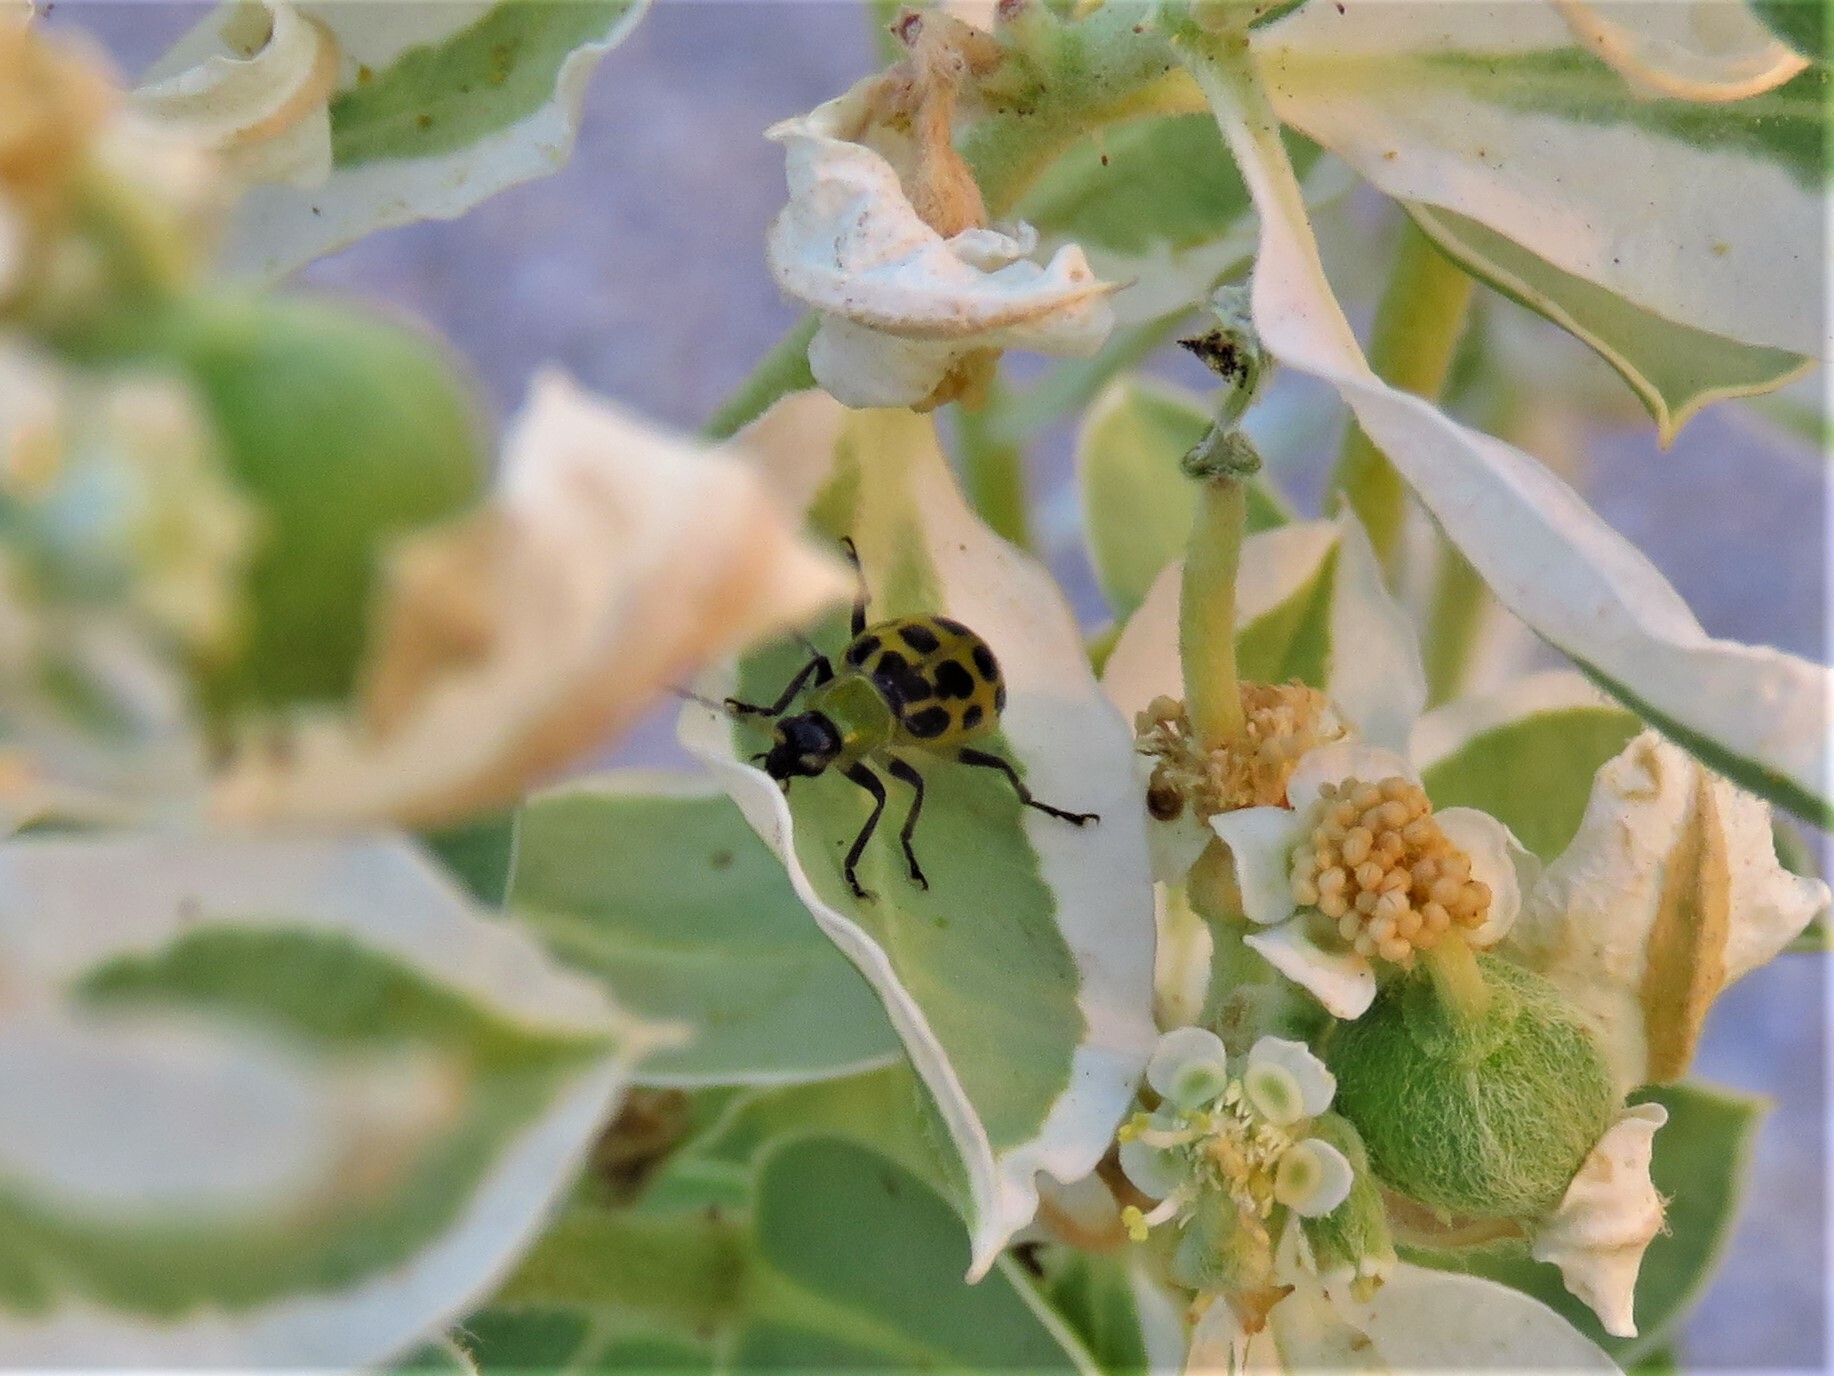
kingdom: Animalia
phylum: Arthropoda
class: Insecta
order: Coleoptera
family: Chrysomelidae
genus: Diabrotica
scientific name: Diabrotica undecimpunctata
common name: Spotted cucumber beetle
